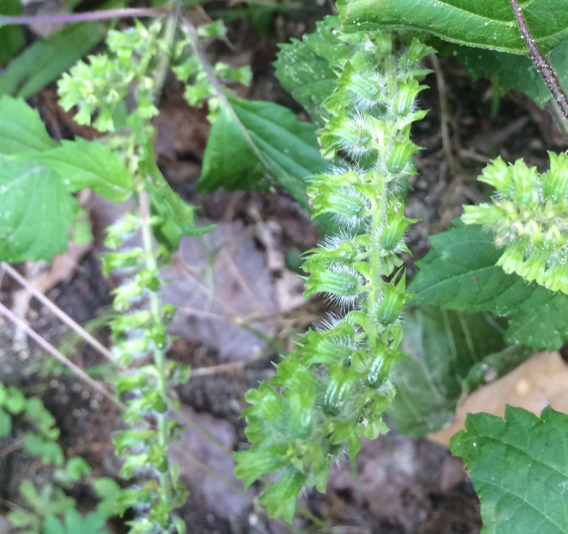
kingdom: Plantae
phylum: Tracheophyta
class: Magnoliopsida
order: Lamiales
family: Lamiaceae
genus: Perilla
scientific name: Perilla frutescens
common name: Perilla
